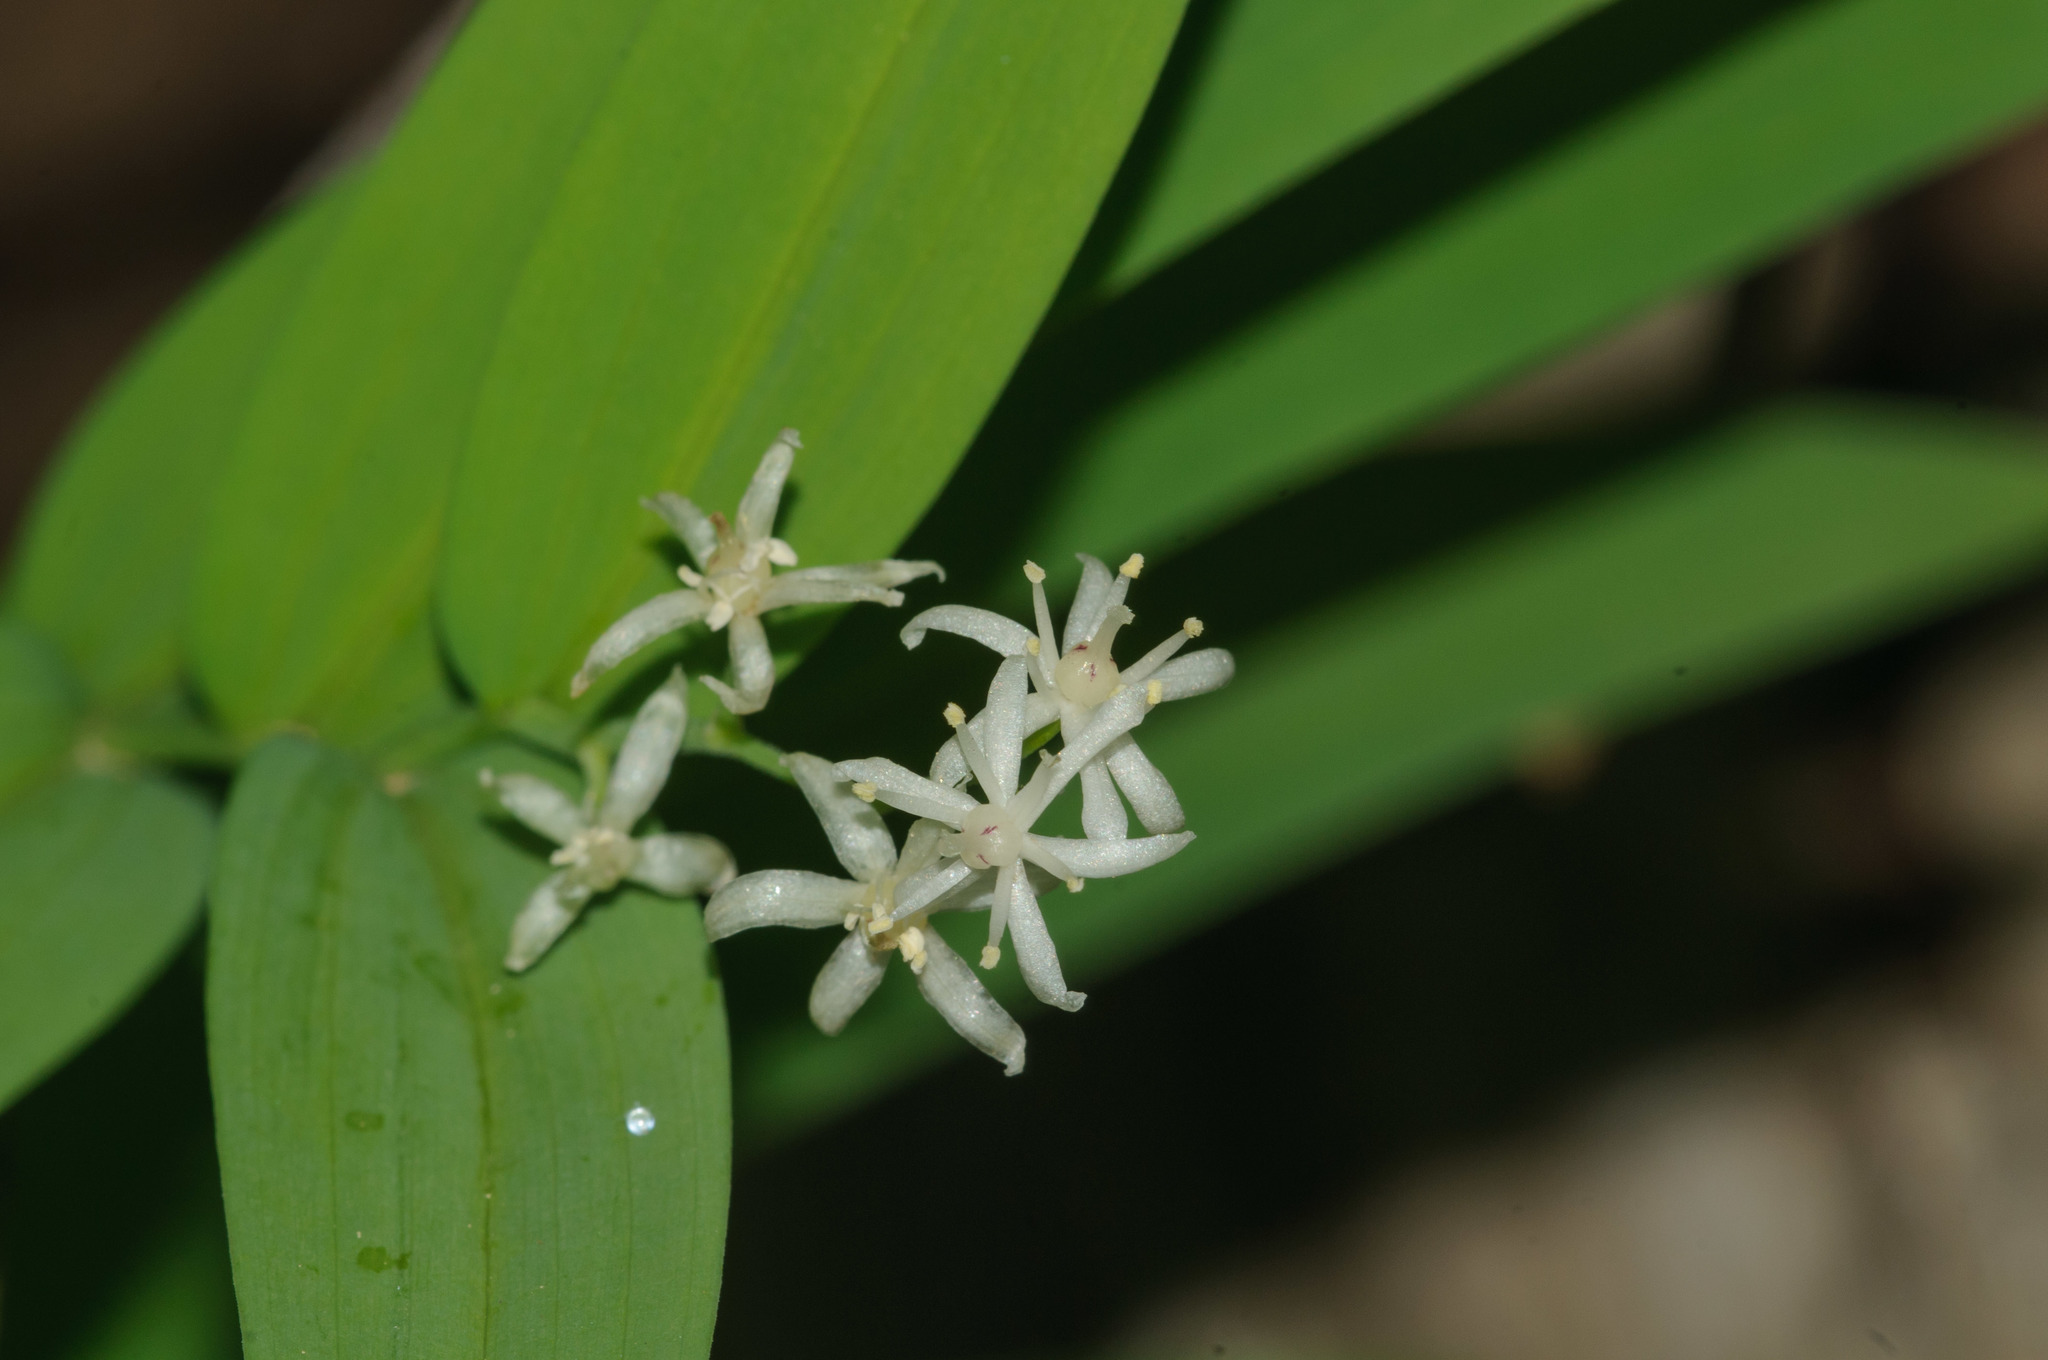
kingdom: Plantae
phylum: Tracheophyta
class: Liliopsida
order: Asparagales
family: Asparagaceae
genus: Maianthemum
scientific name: Maianthemum stellatum
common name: Little false solomon's seal
